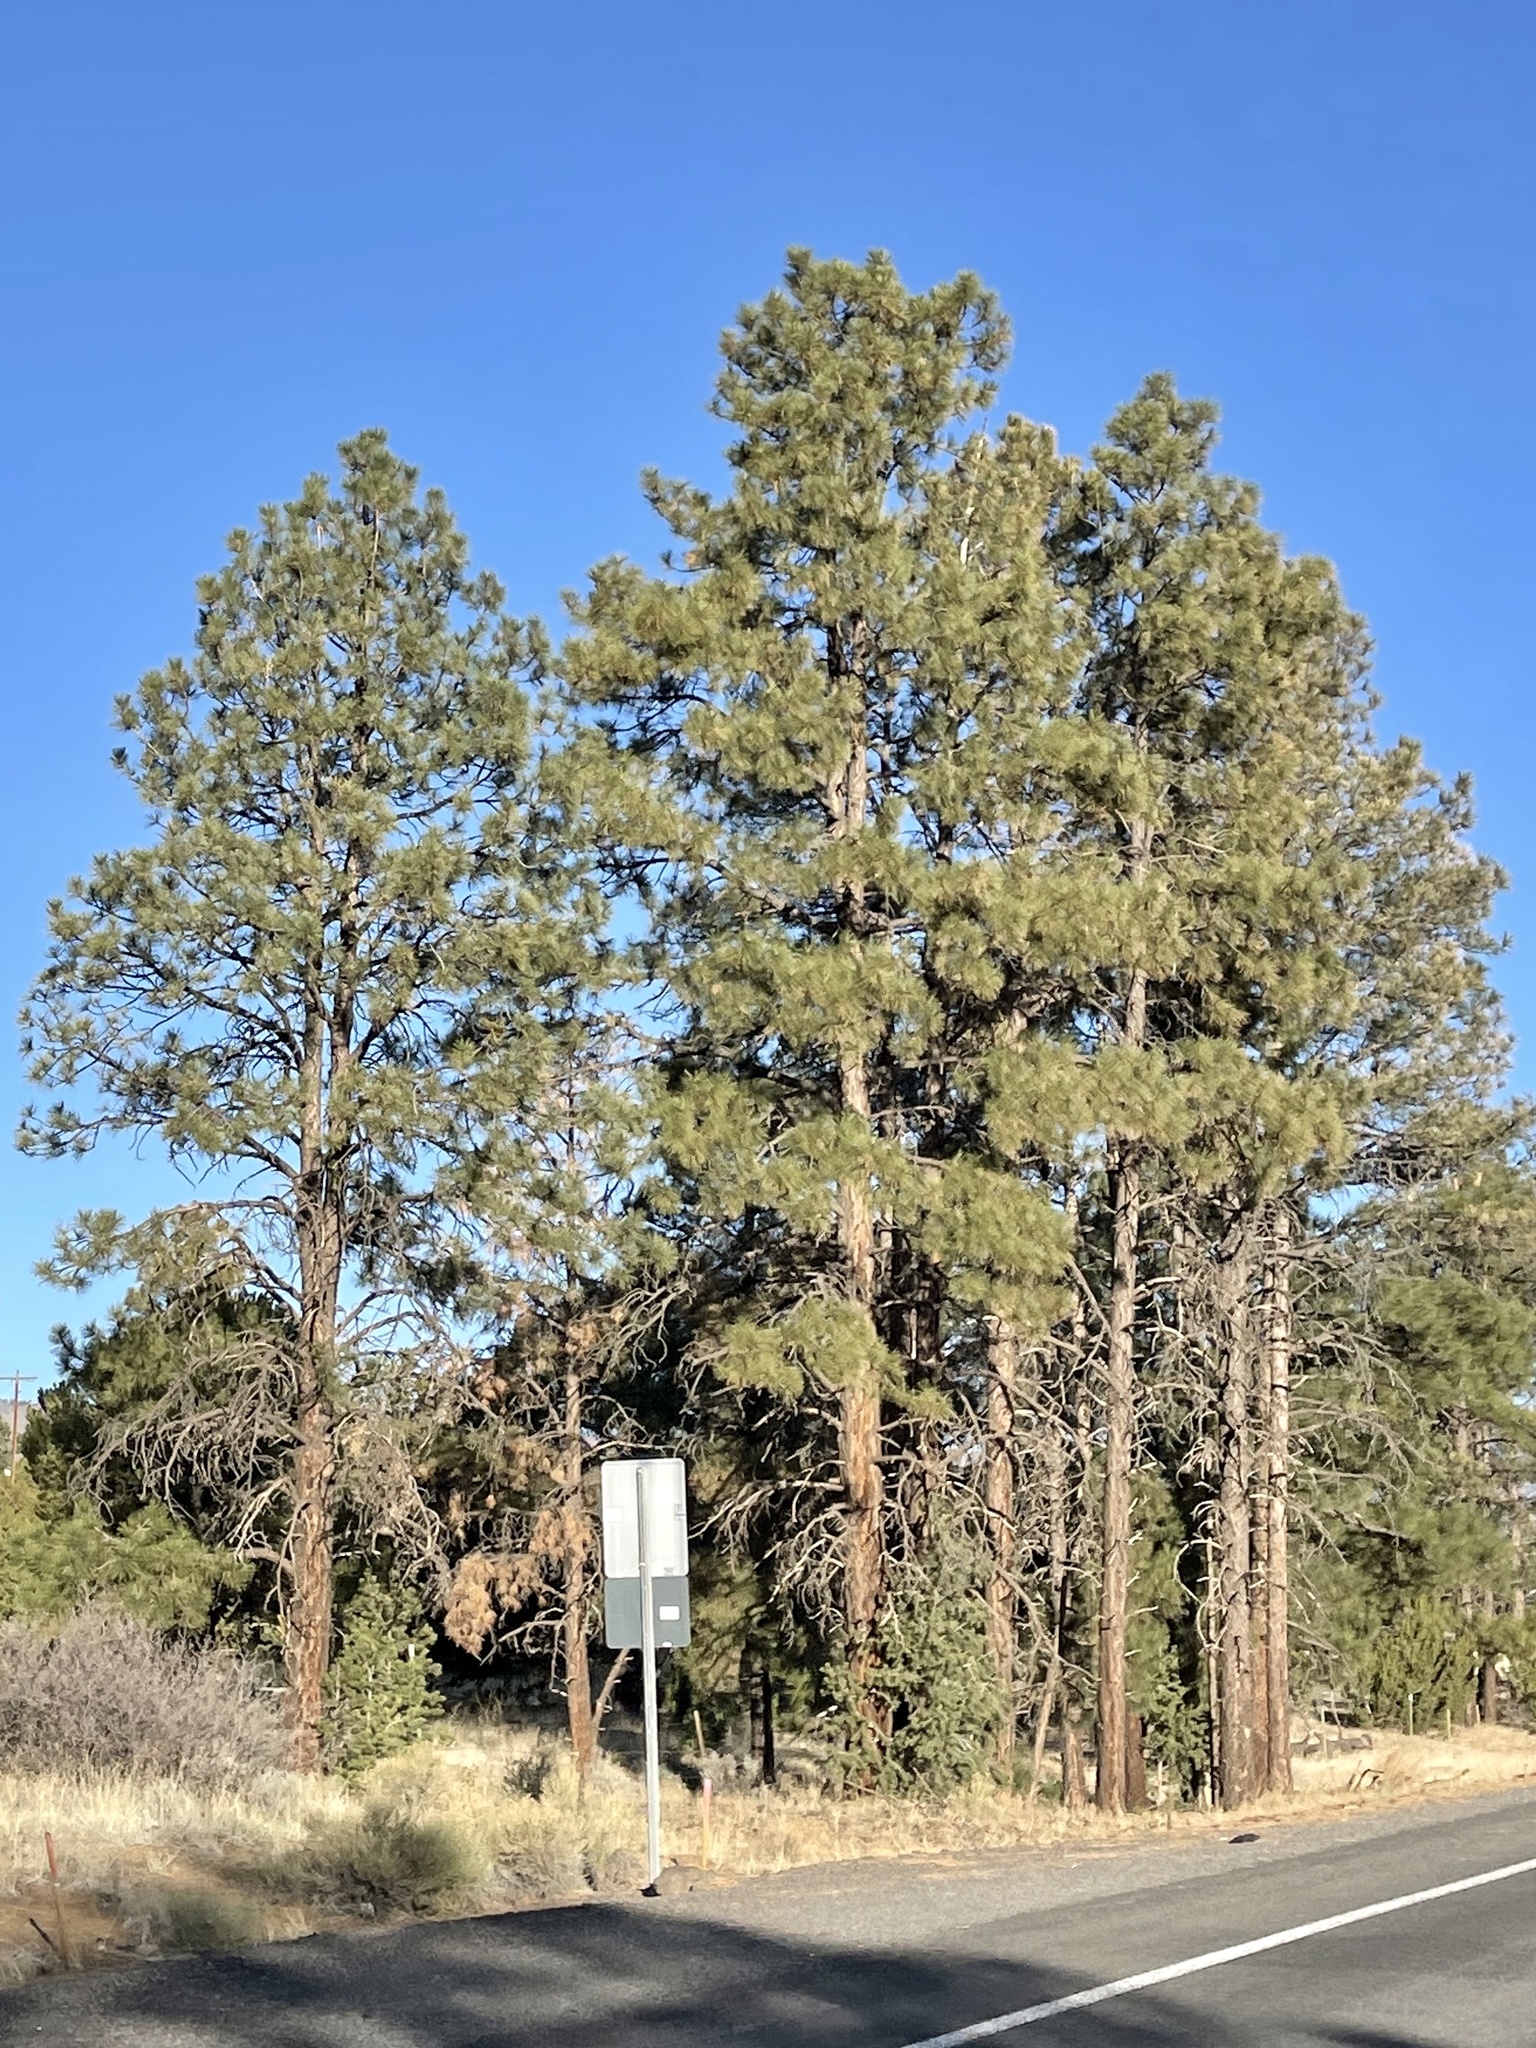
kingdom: Plantae
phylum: Tracheophyta
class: Pinopsida
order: Pinales
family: Pinaceae
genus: Pinus
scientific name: Pinus ponderosa
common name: Western yellow-pine
